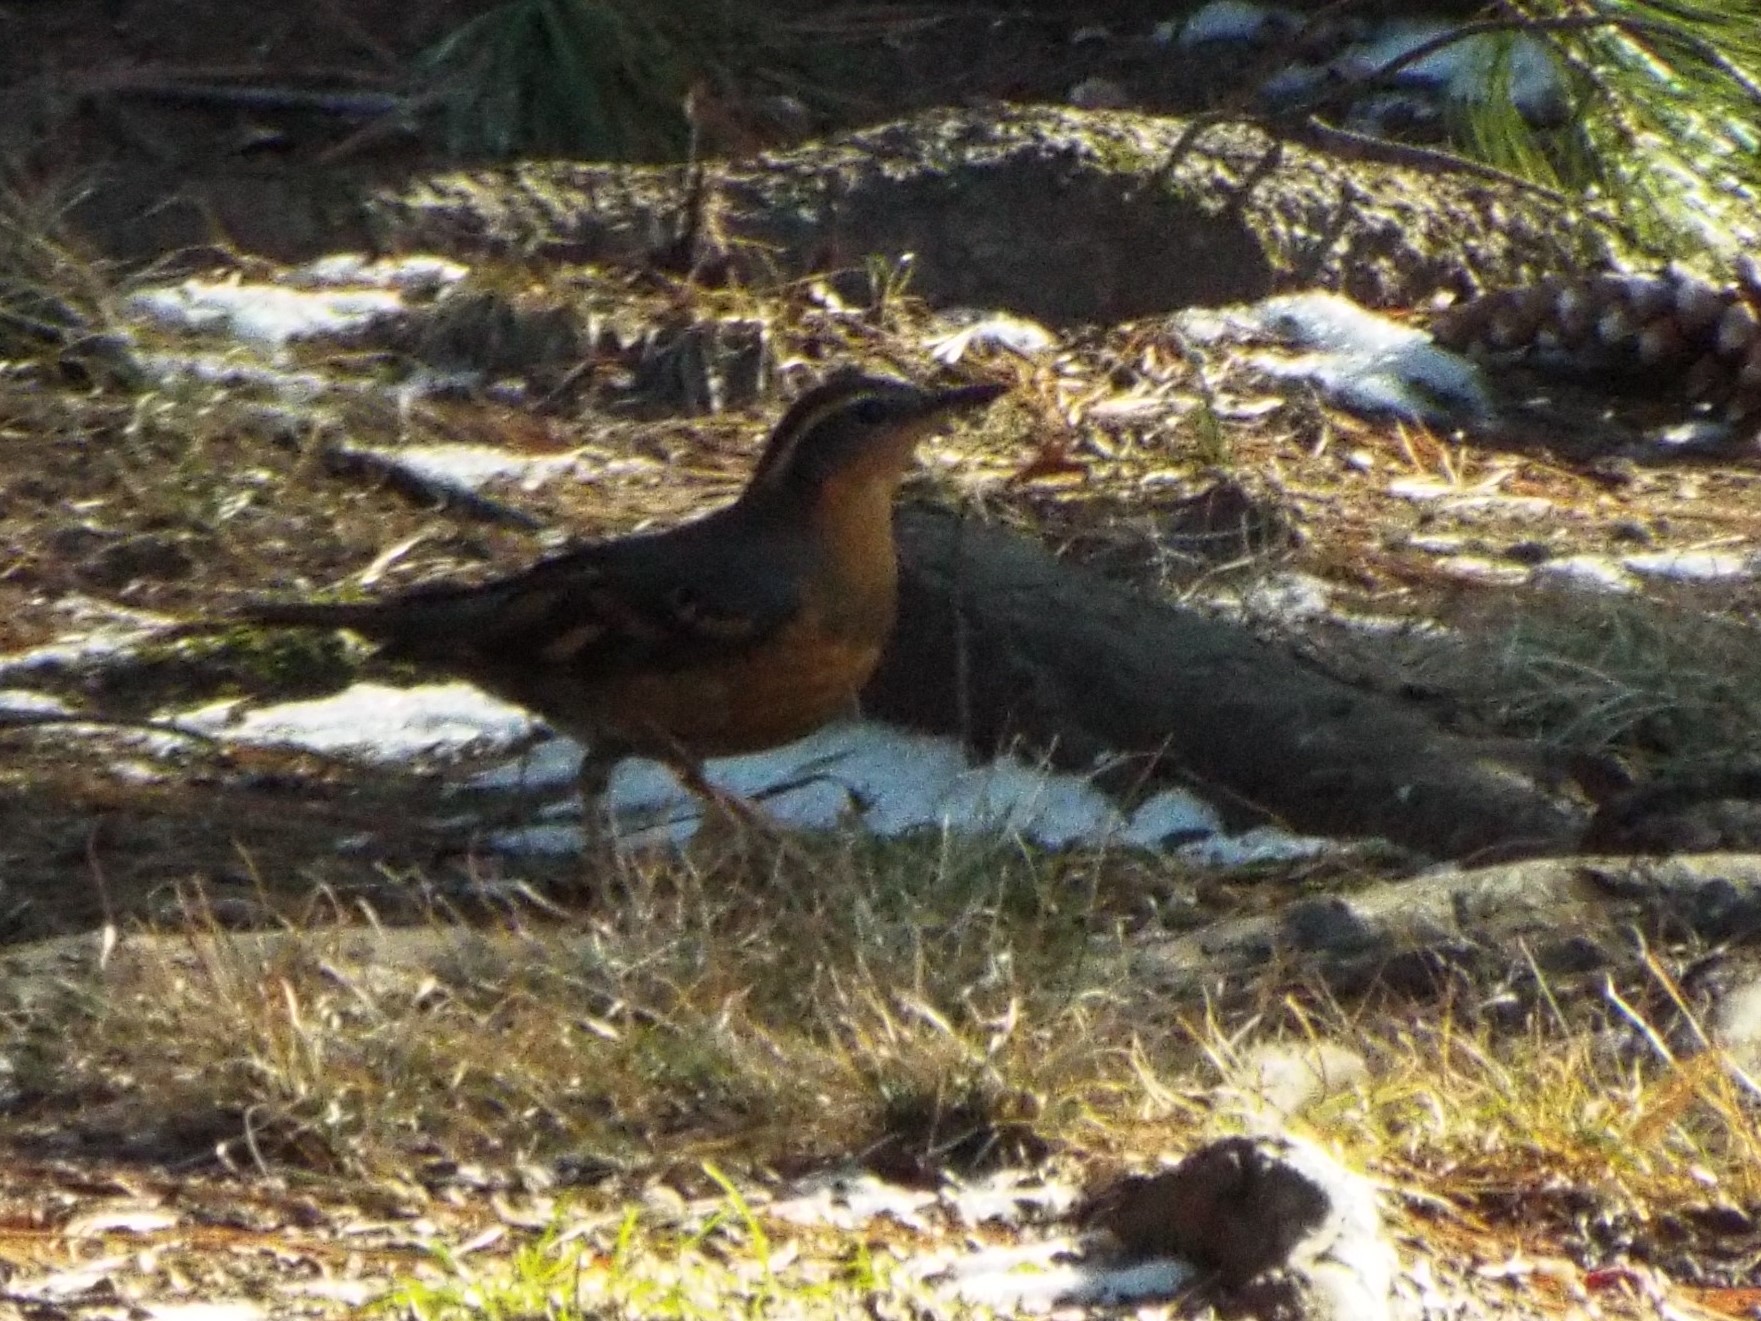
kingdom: Animalia
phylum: Chordata
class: Aves
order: Passeriformes
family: Turdidae
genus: Ixoreus
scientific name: Ixoreus naevius
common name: Varied thrush
